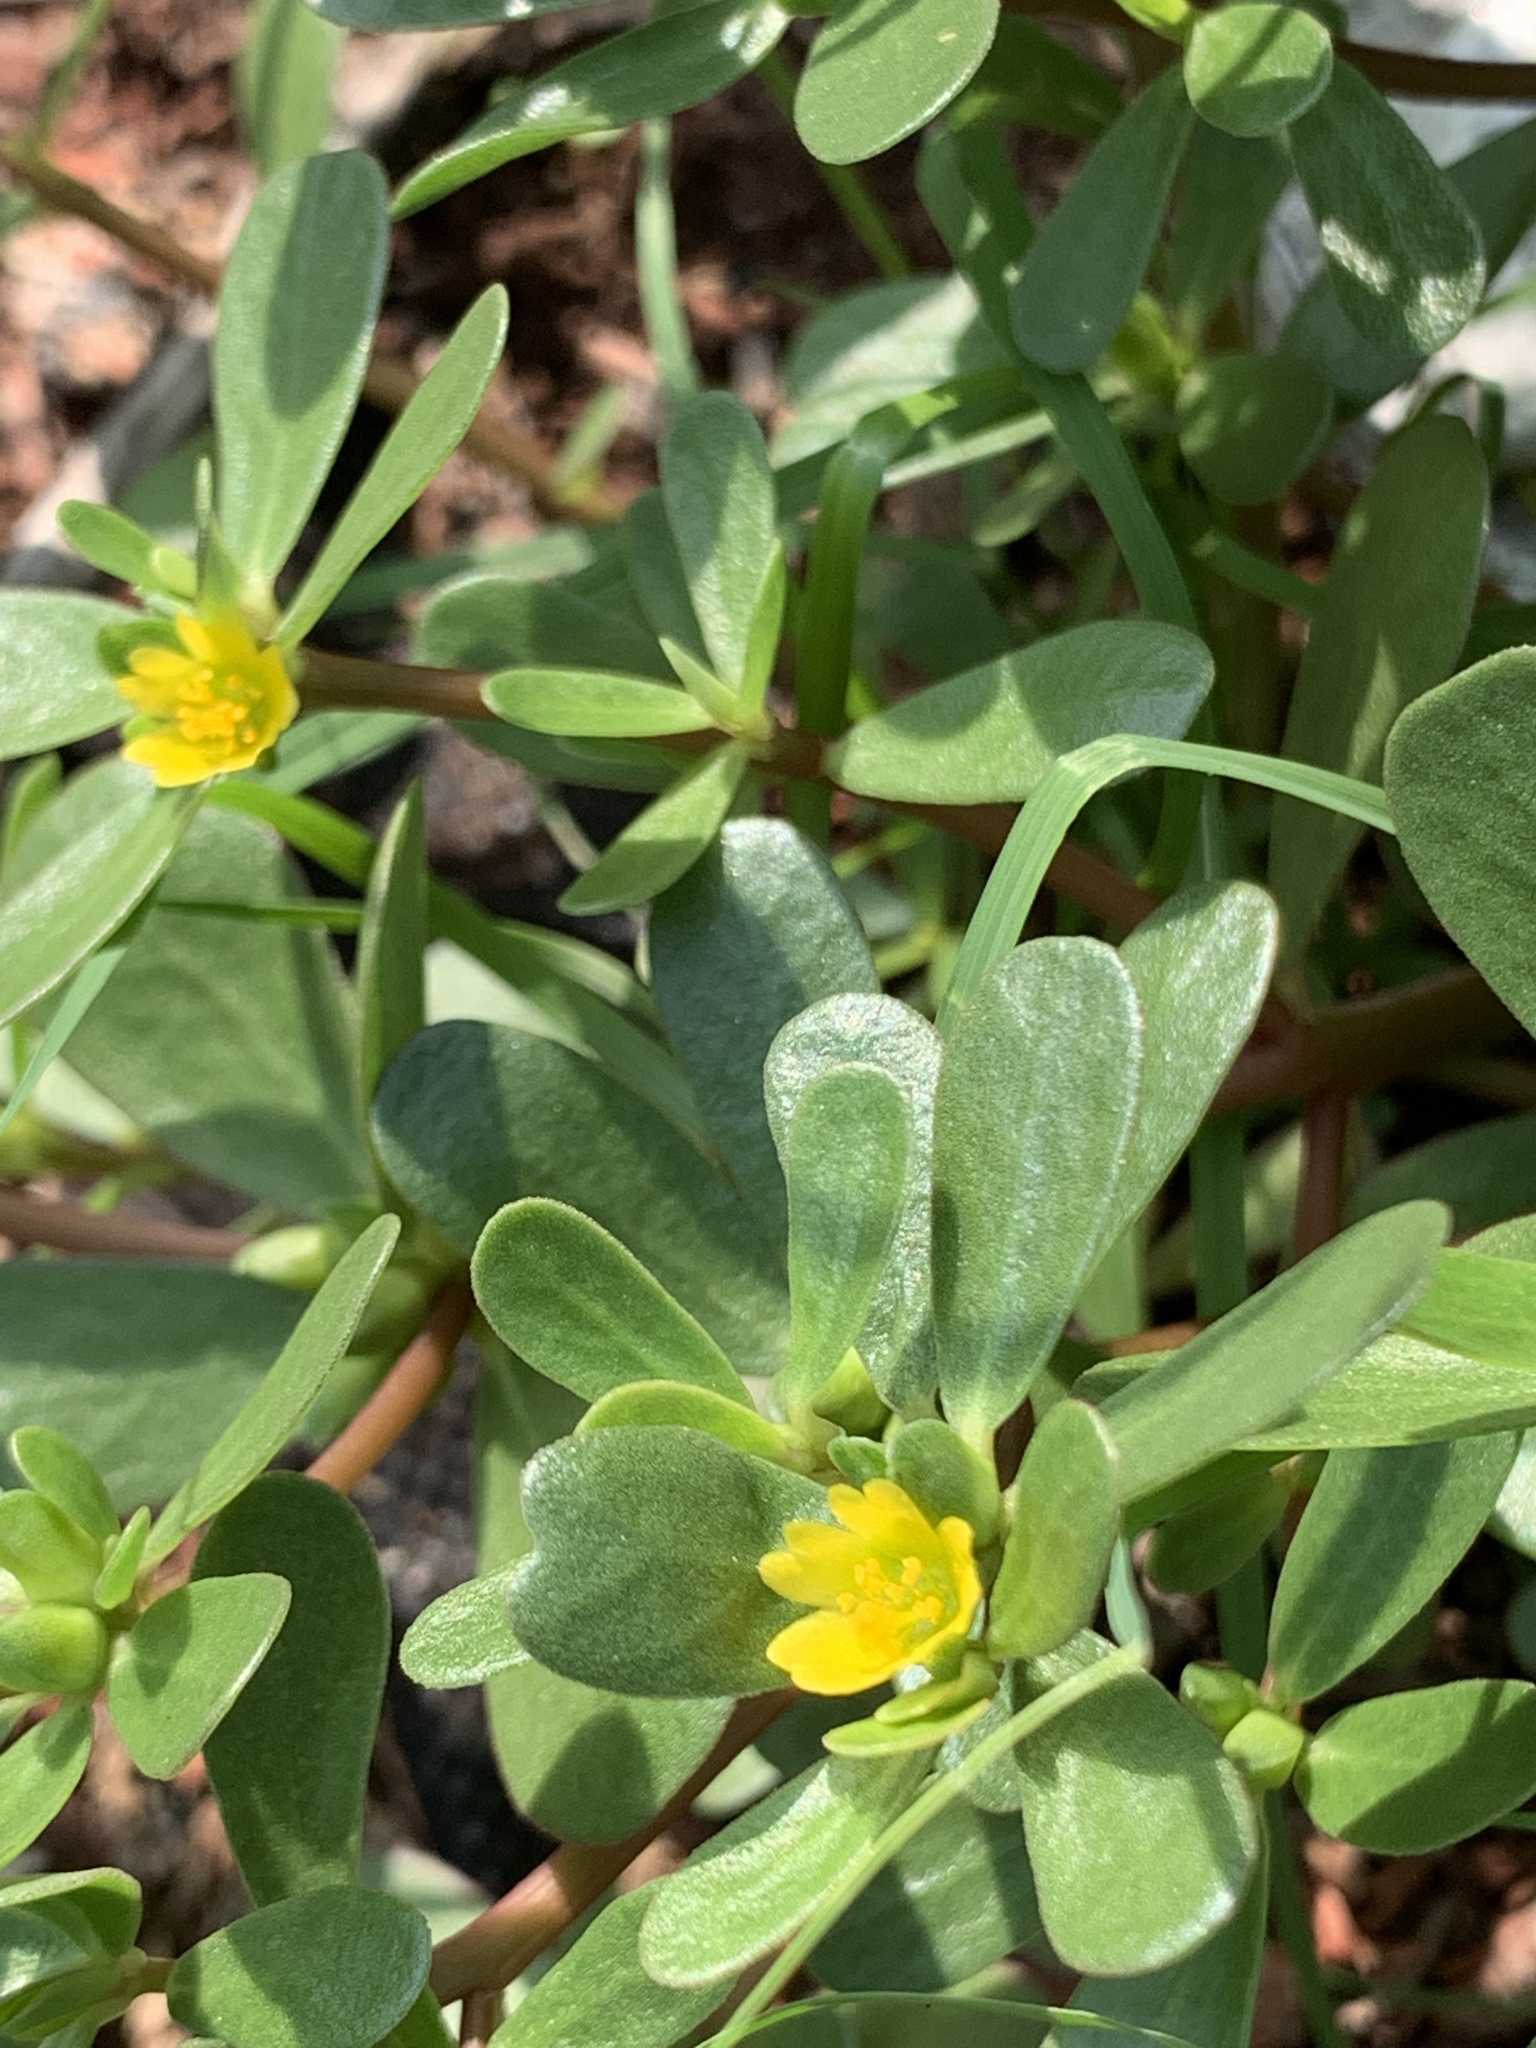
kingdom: Plantae
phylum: Tracheophyta
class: Magnoliopsida
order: Caryophyllales
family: Portulacaceae
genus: Portulaca
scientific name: Portulaca oleracea
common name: Common purslane
